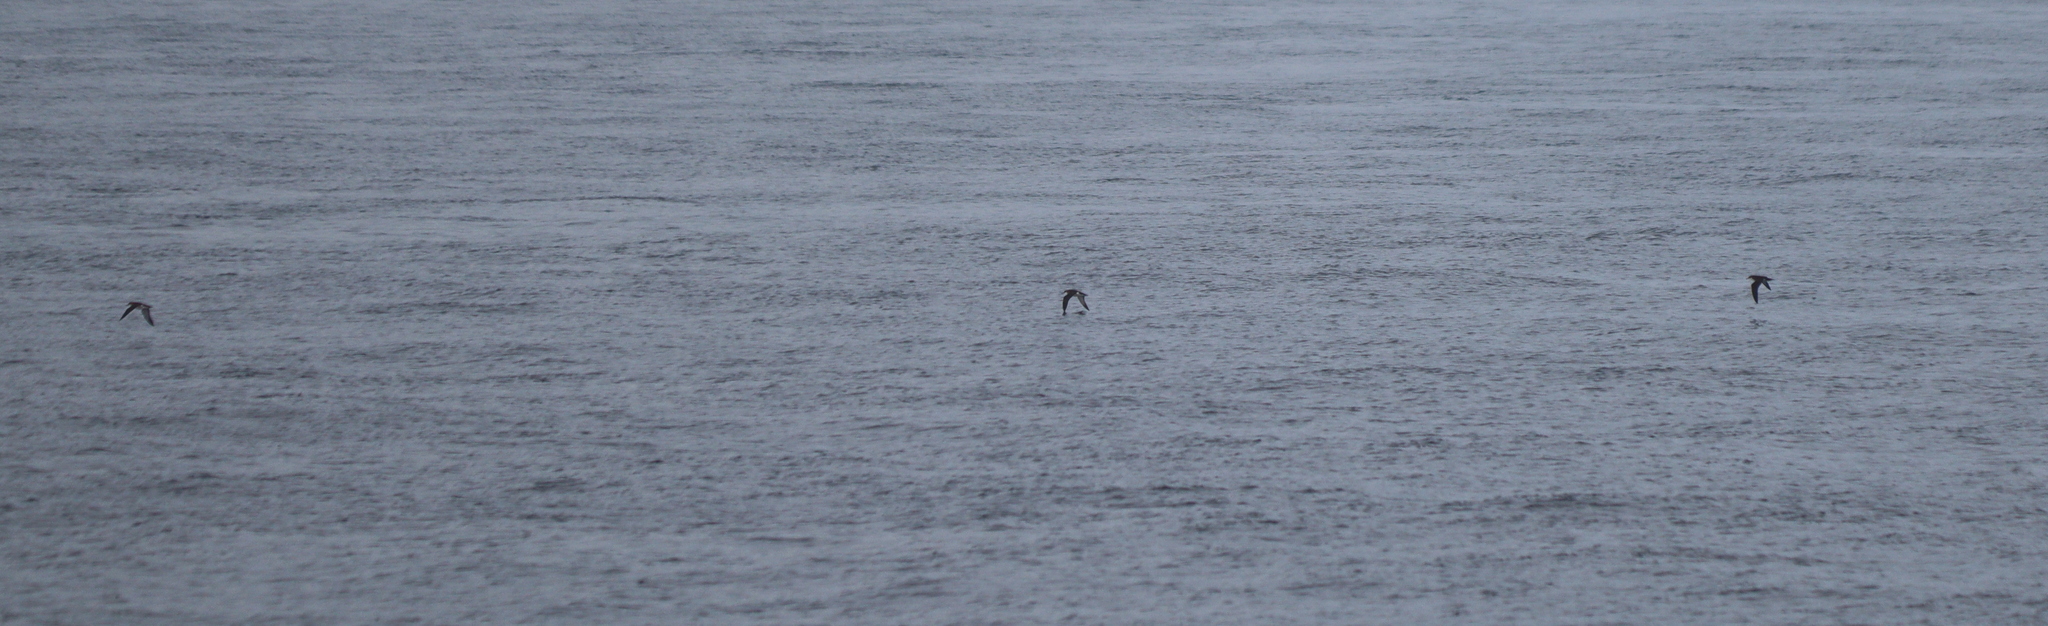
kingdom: Animalia
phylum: Chordata
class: Aves
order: Procellariiformes
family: Procellariidae
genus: Puffinus
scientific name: Puffinus puffinus
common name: Manx shearwater
